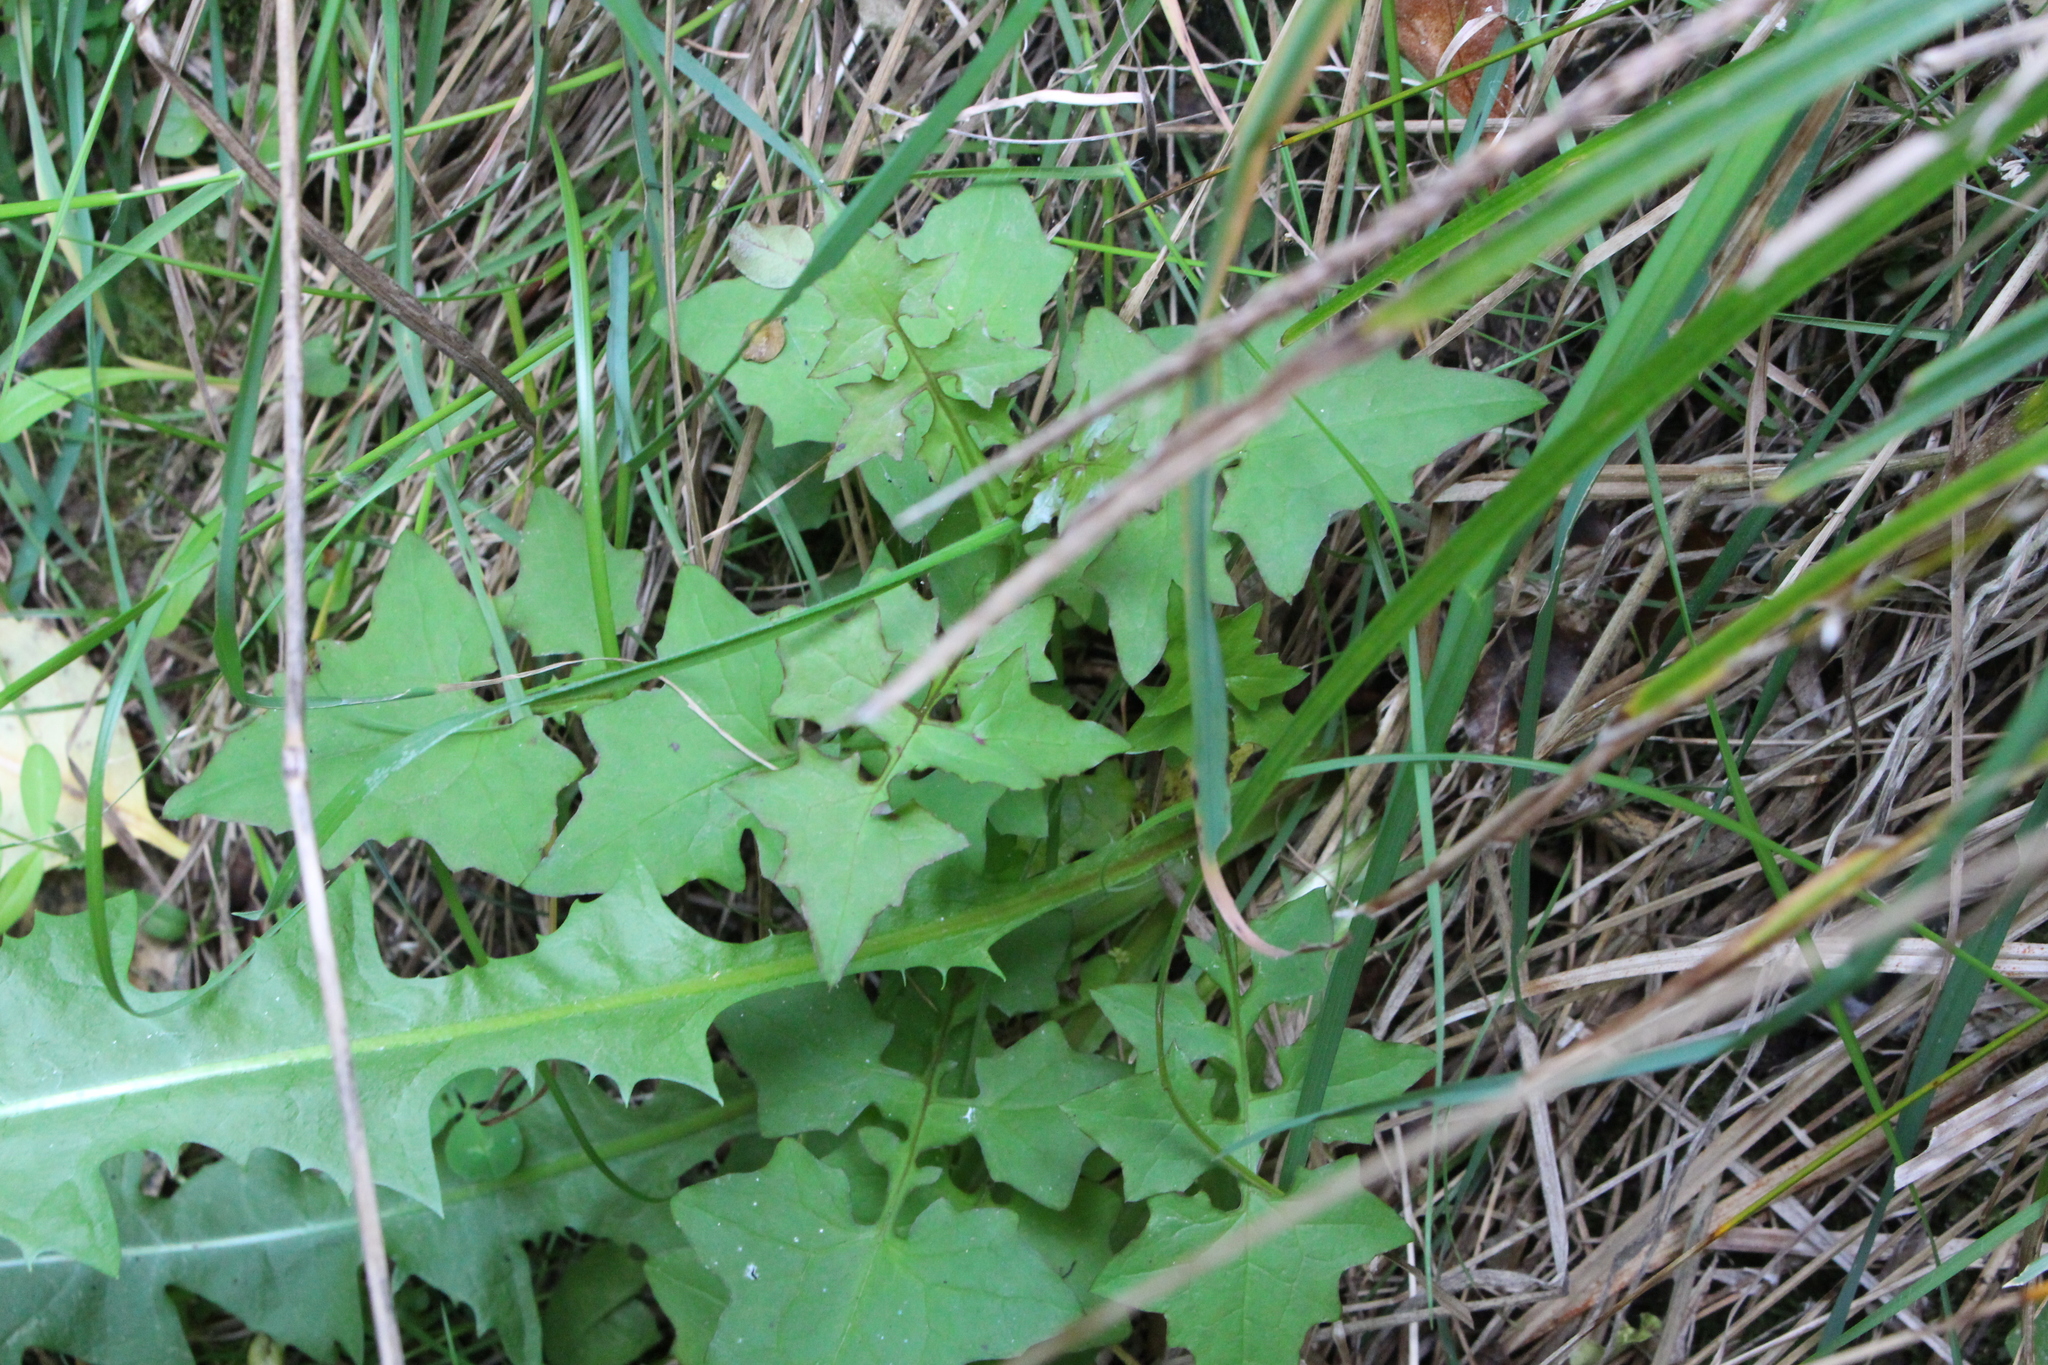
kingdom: Plantae
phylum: Tracheophyta
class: Magnoliopsida
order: Asterales
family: Asteraceae
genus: Mycelis
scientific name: Mycelis muralis
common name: Wall lettuce
